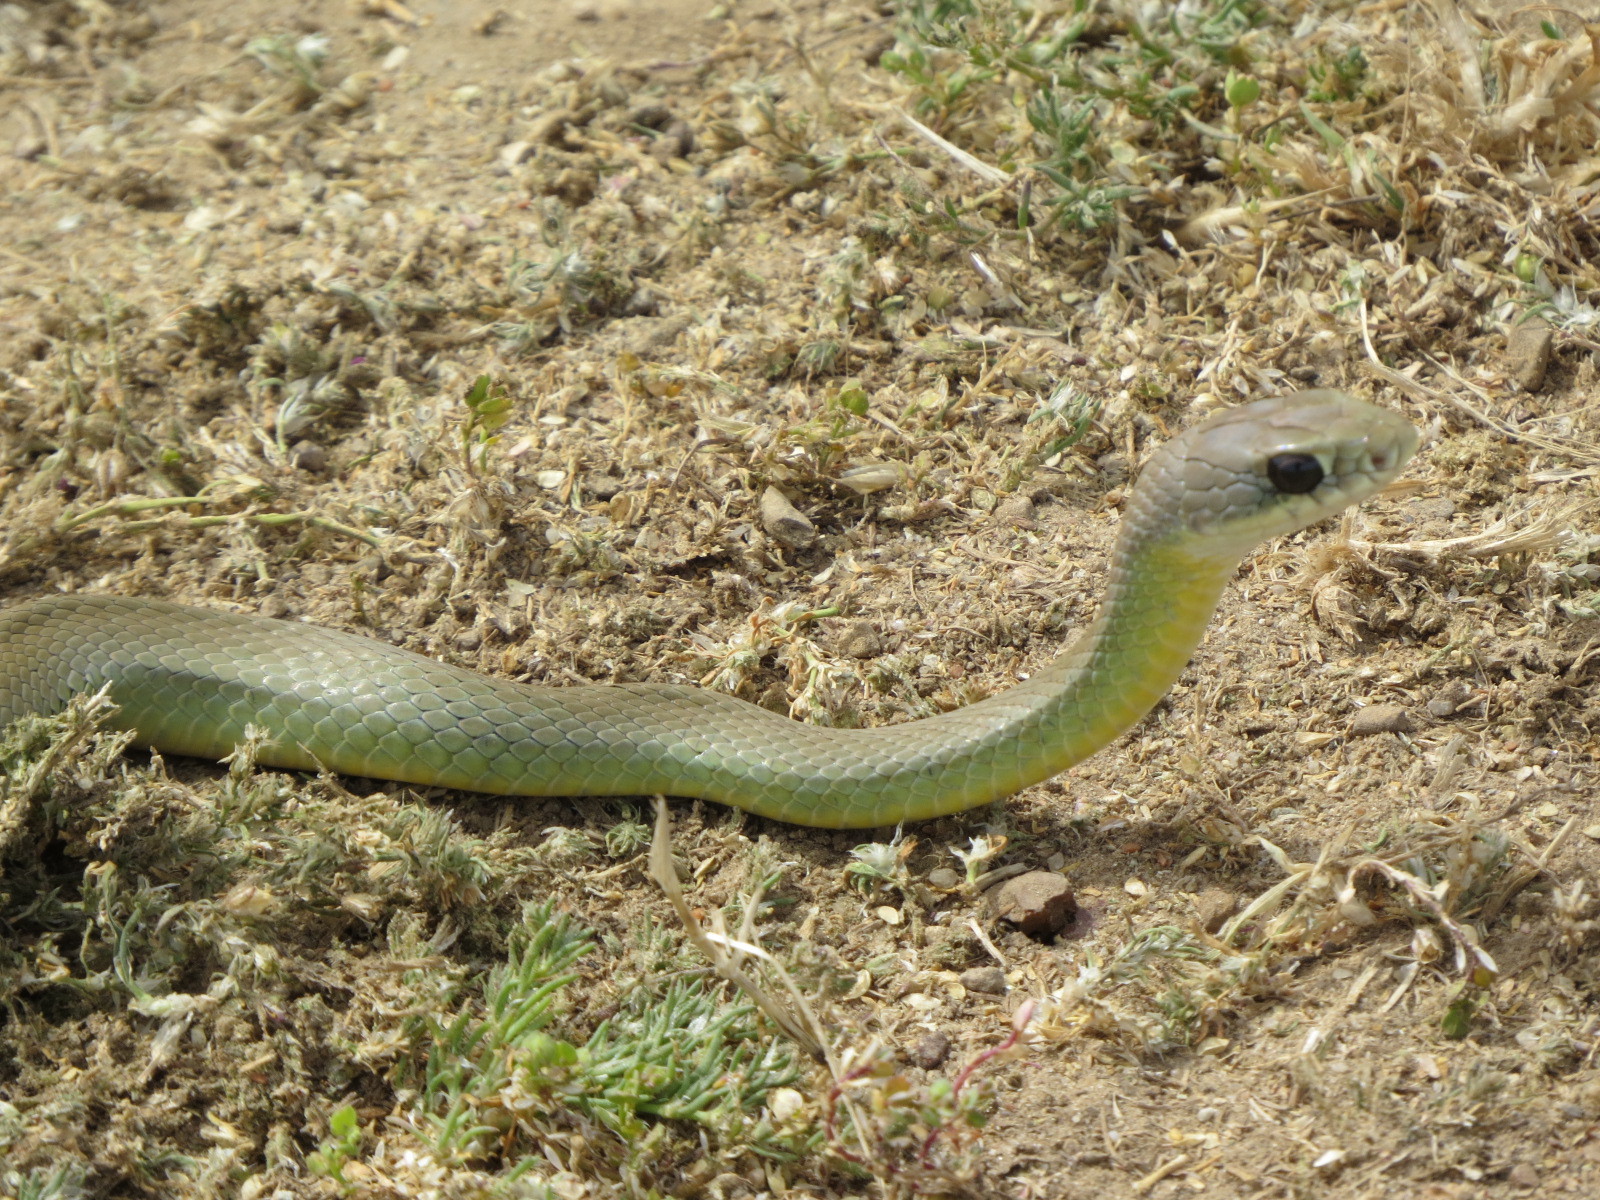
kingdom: Animalia
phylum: Chordata
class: Squamata
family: Colubridae
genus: Coluber
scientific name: Coluber constrictor
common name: Eastern racer
